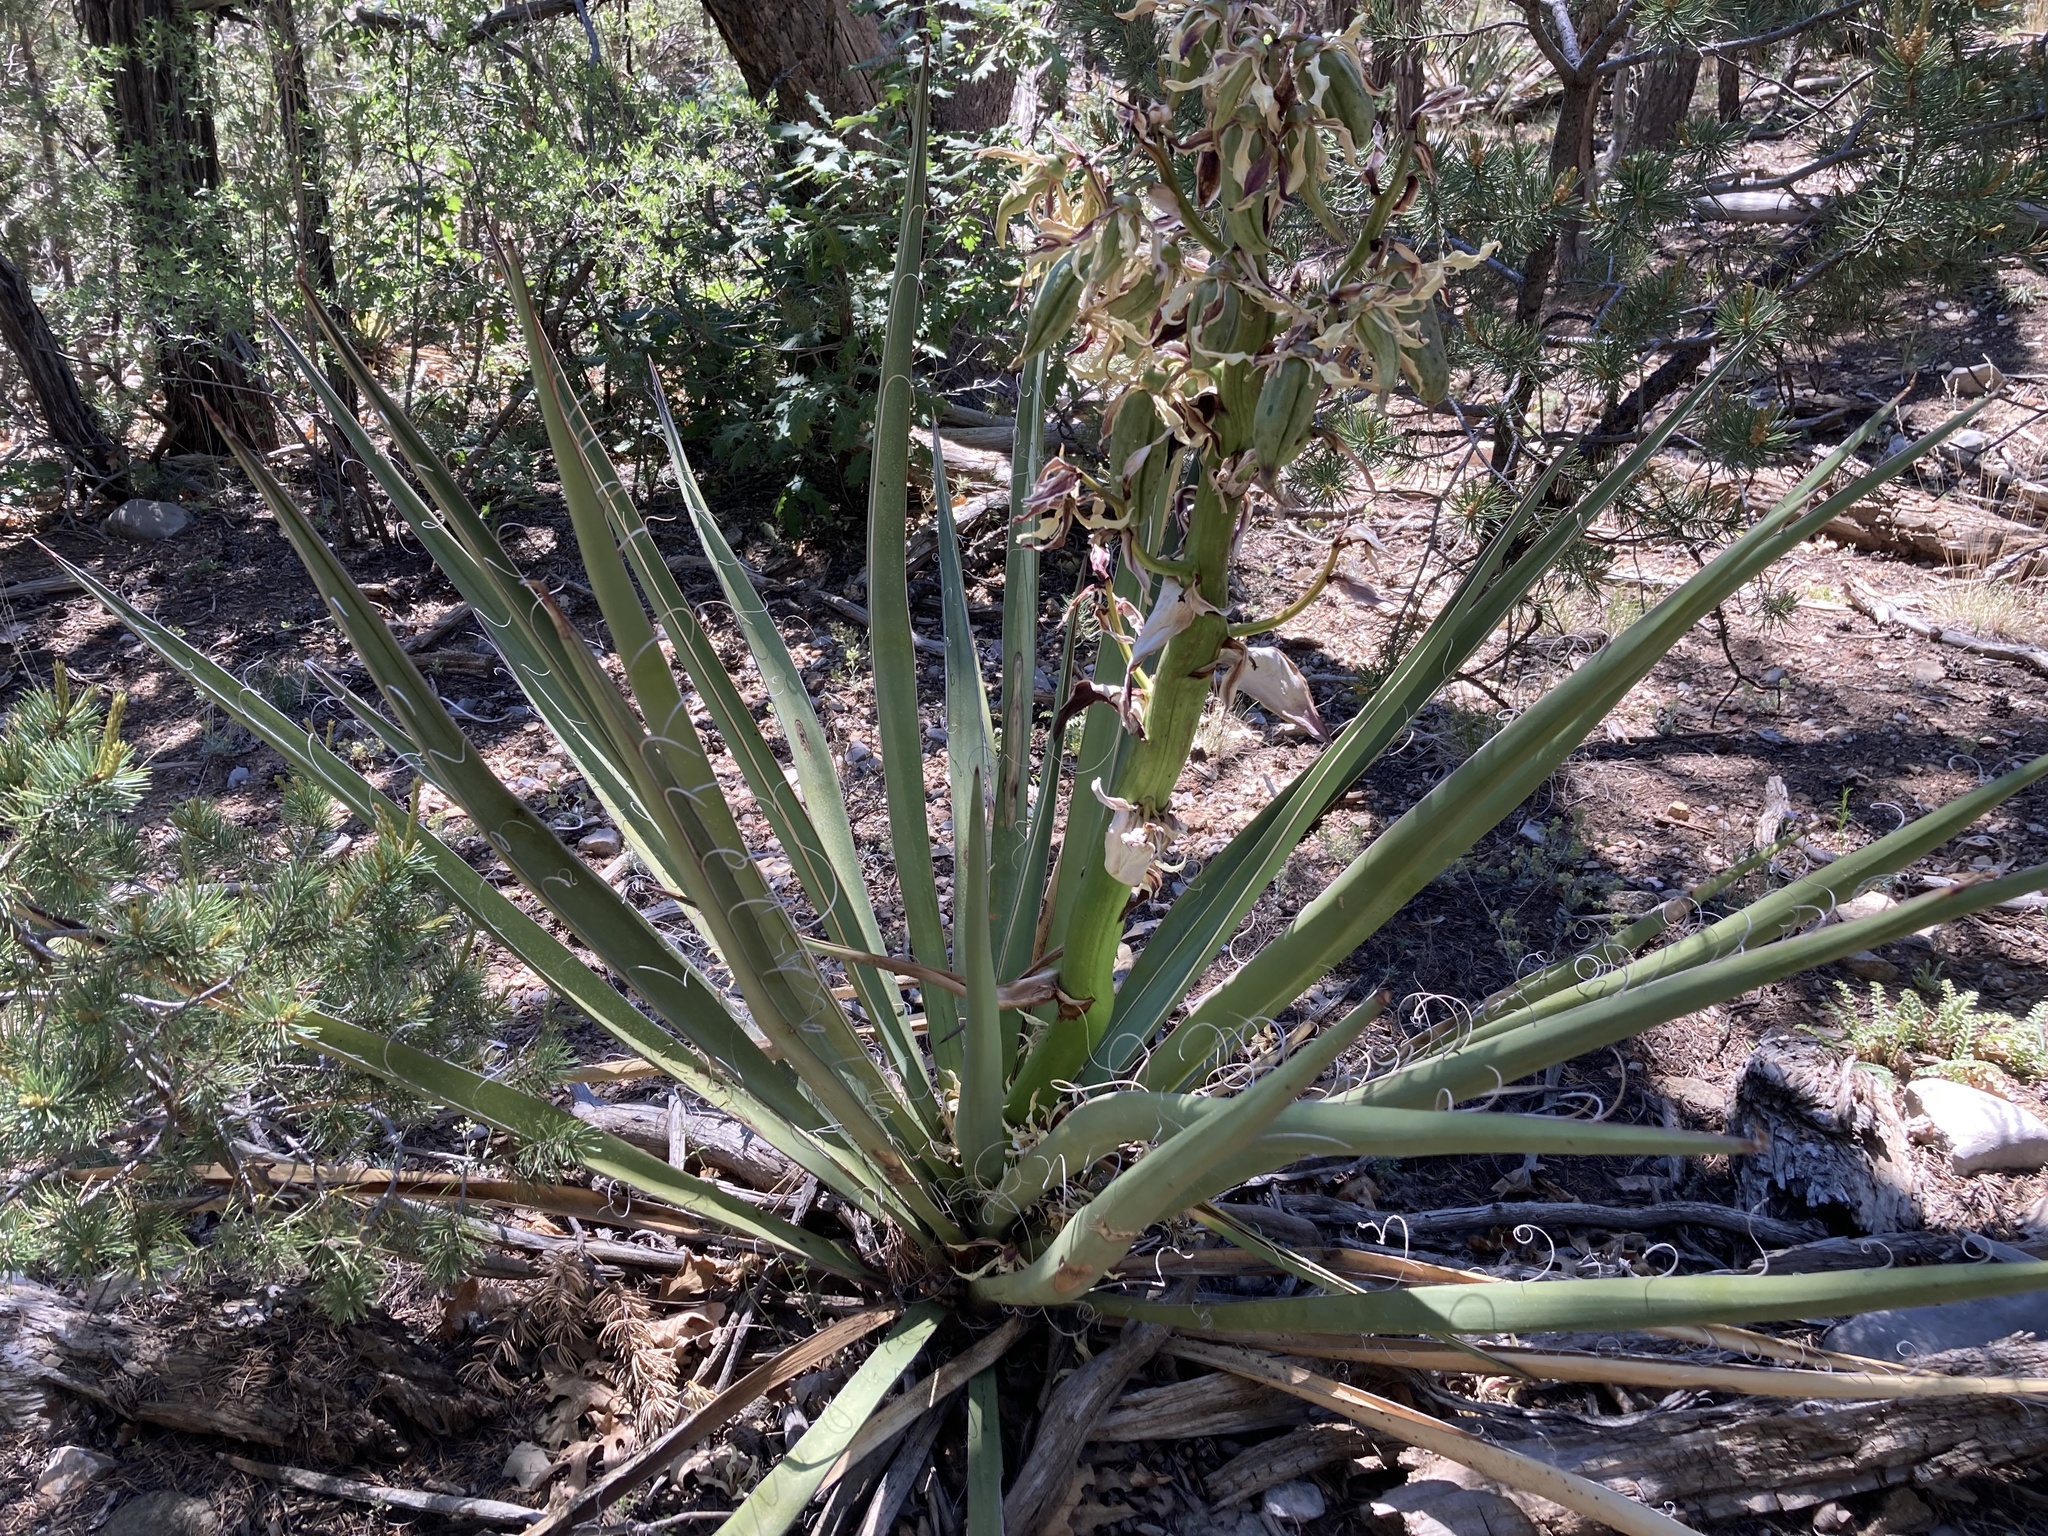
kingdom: Plantae
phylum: Tracheophyta
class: Liliopsida
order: Asparagales
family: Asparagaceae
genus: Yucca
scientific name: Yucca baccata
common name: Banana yucca
